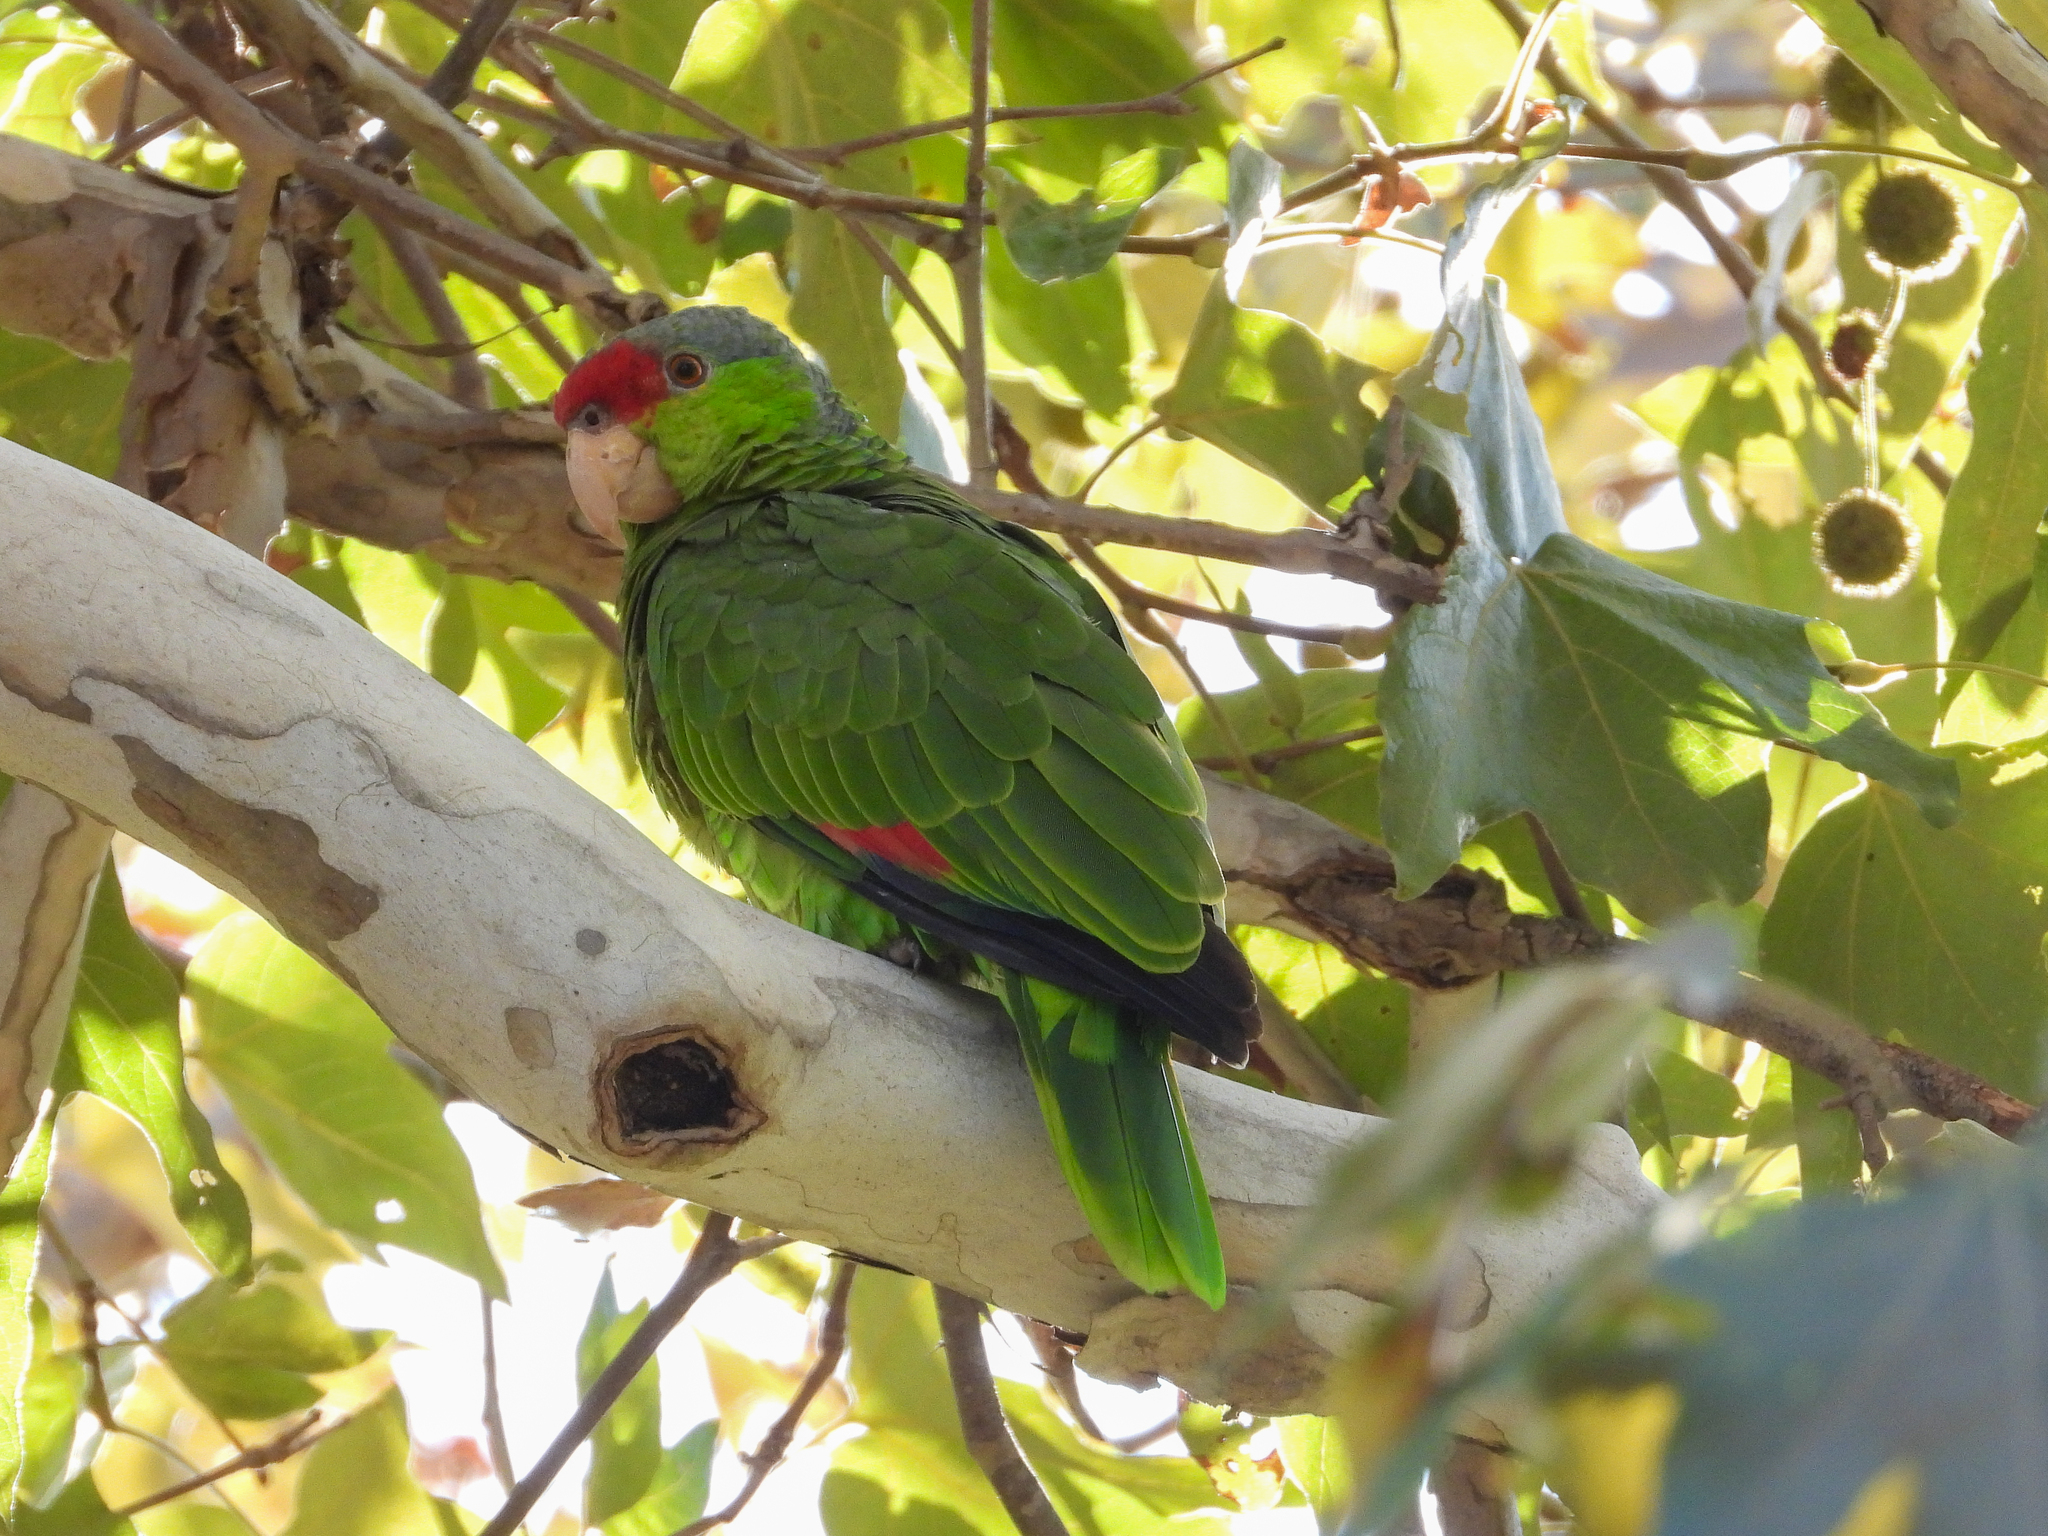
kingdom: Animalia
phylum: Chordata
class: Aves
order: Psittaciformes
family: Psittacidae
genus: Amazona
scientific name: Amazona
